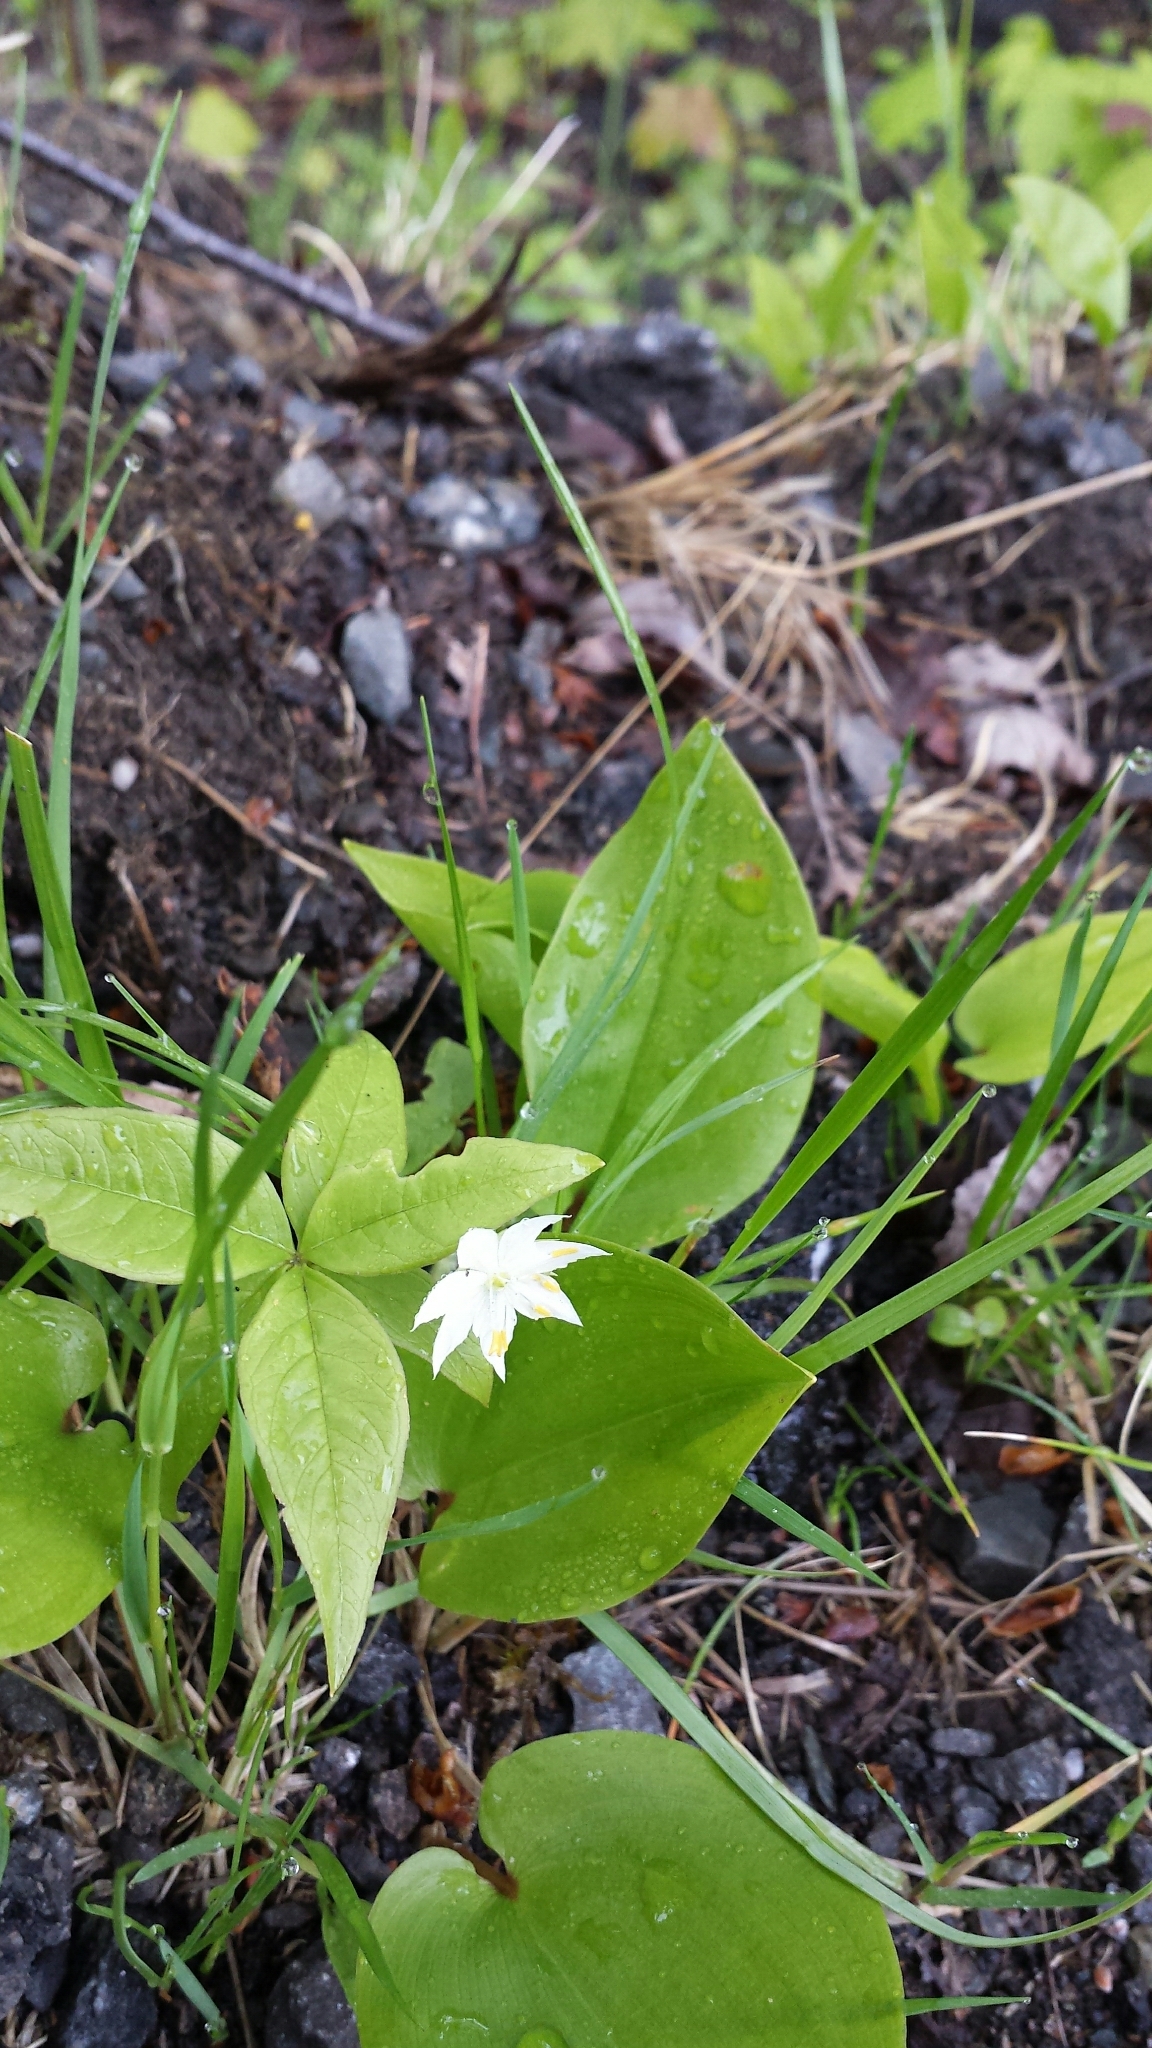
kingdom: Plantae
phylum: Tracheophyta
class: Magnoliopsida
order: Ericales
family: Primulaceae
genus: Lysimachia
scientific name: Lysimachia borealis
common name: American starflower
